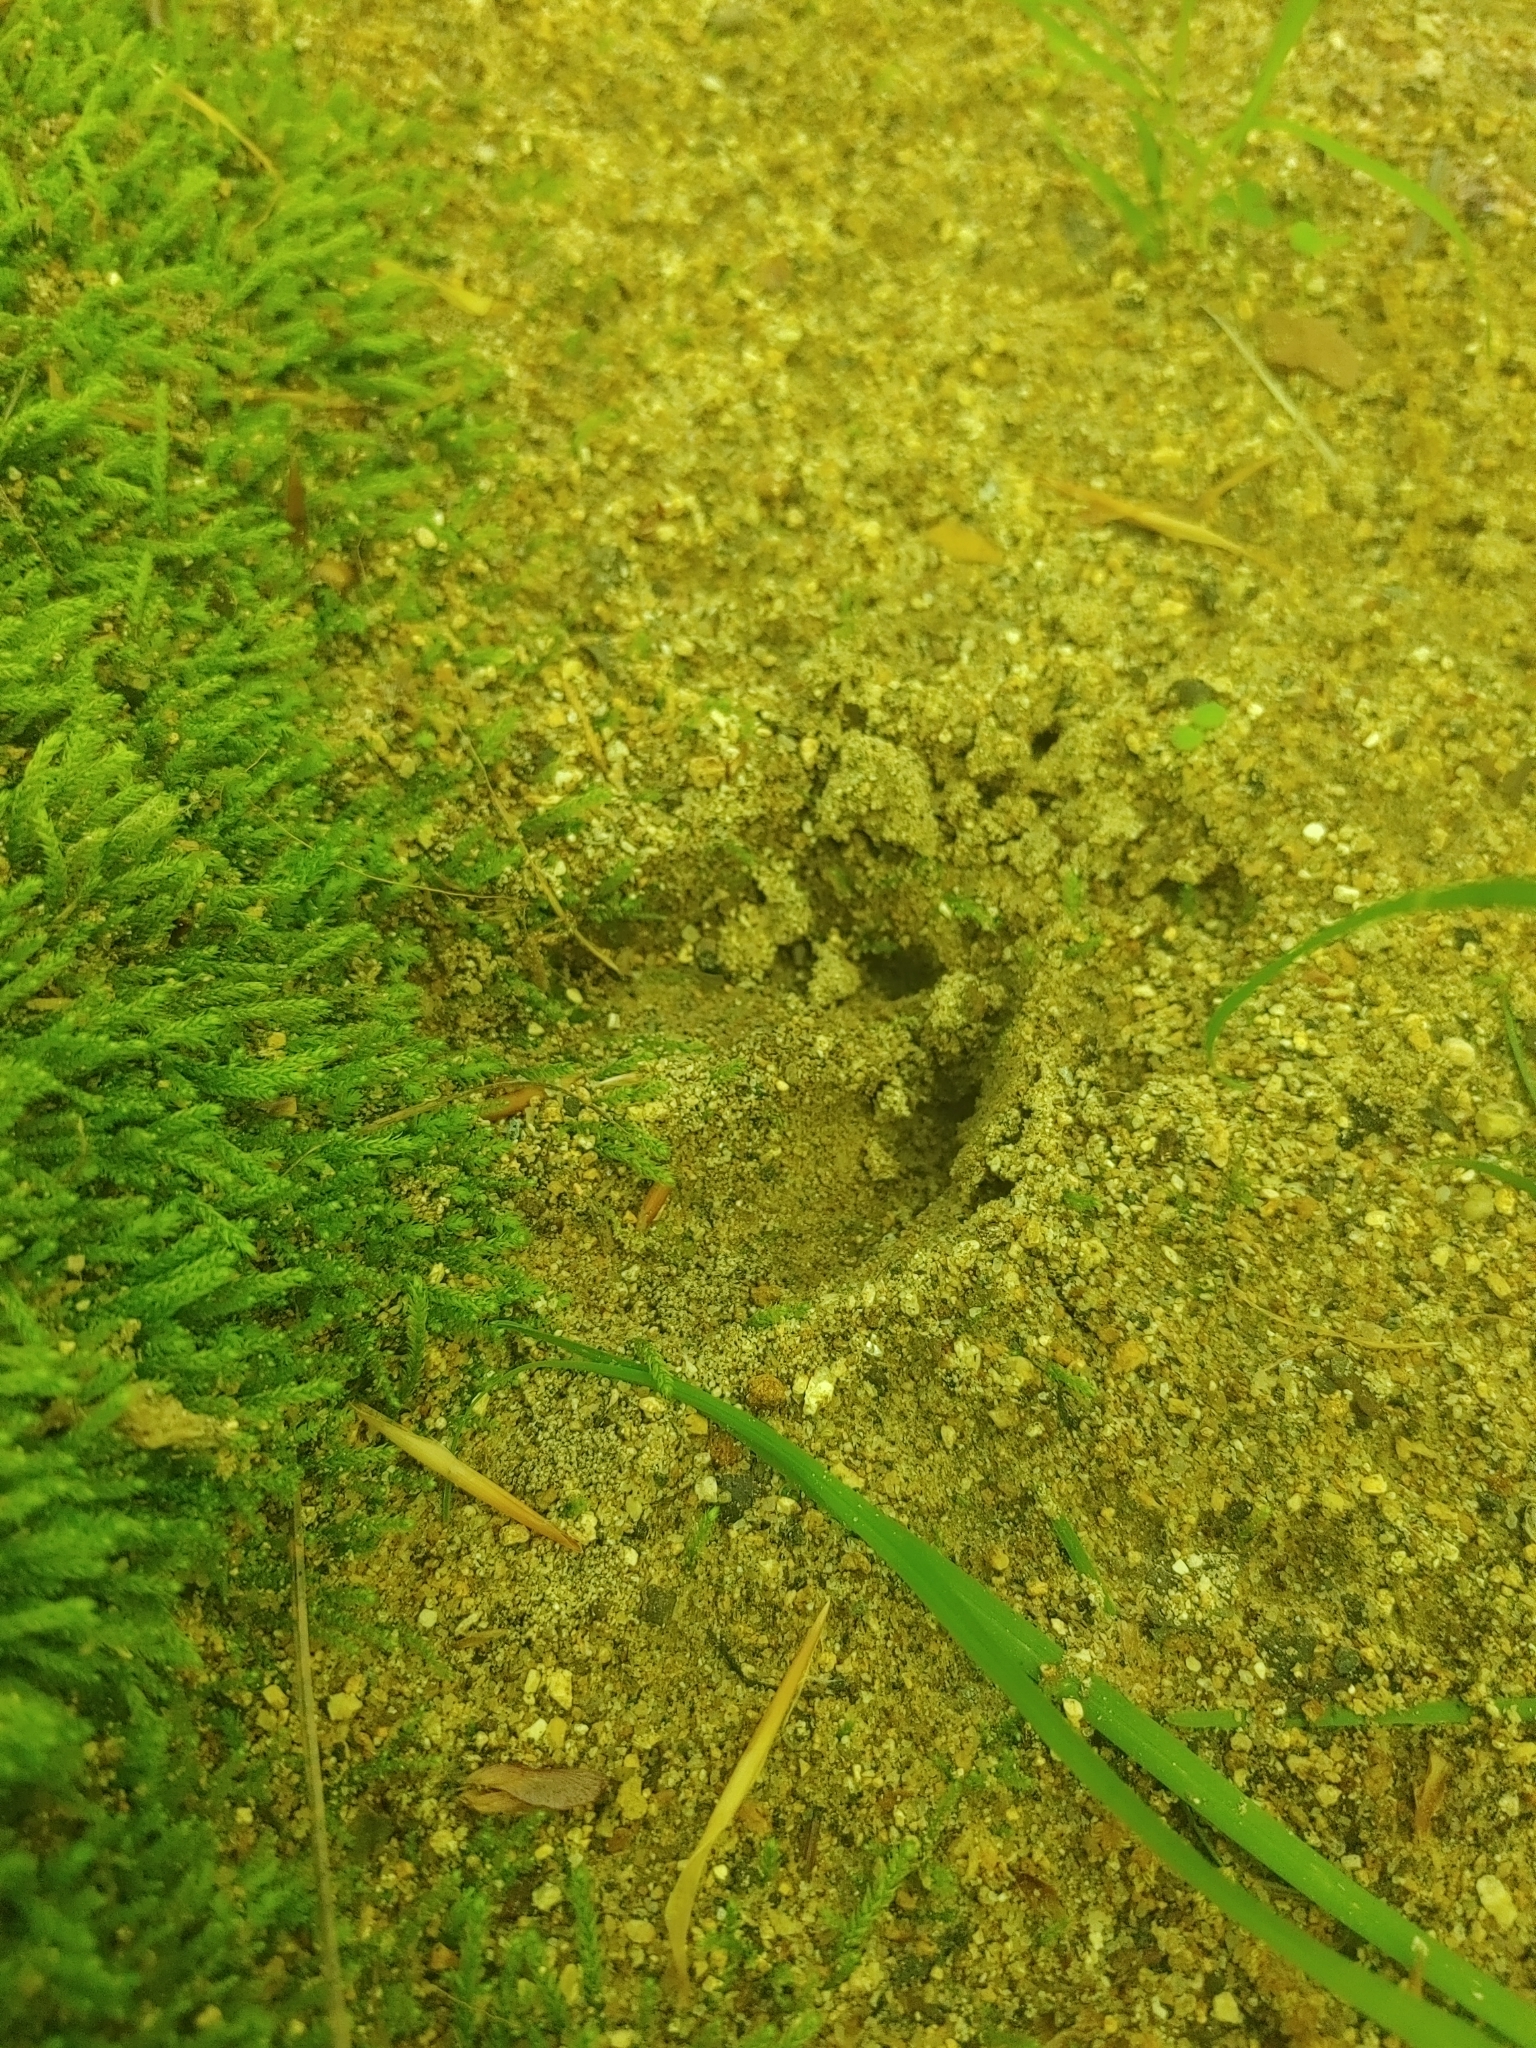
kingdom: Animalia
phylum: Chordata
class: Mammalia
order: Artiodactyla
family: Cervidae
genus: Odocoileus
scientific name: Odocoileus virginianus
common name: White-tailed deer
